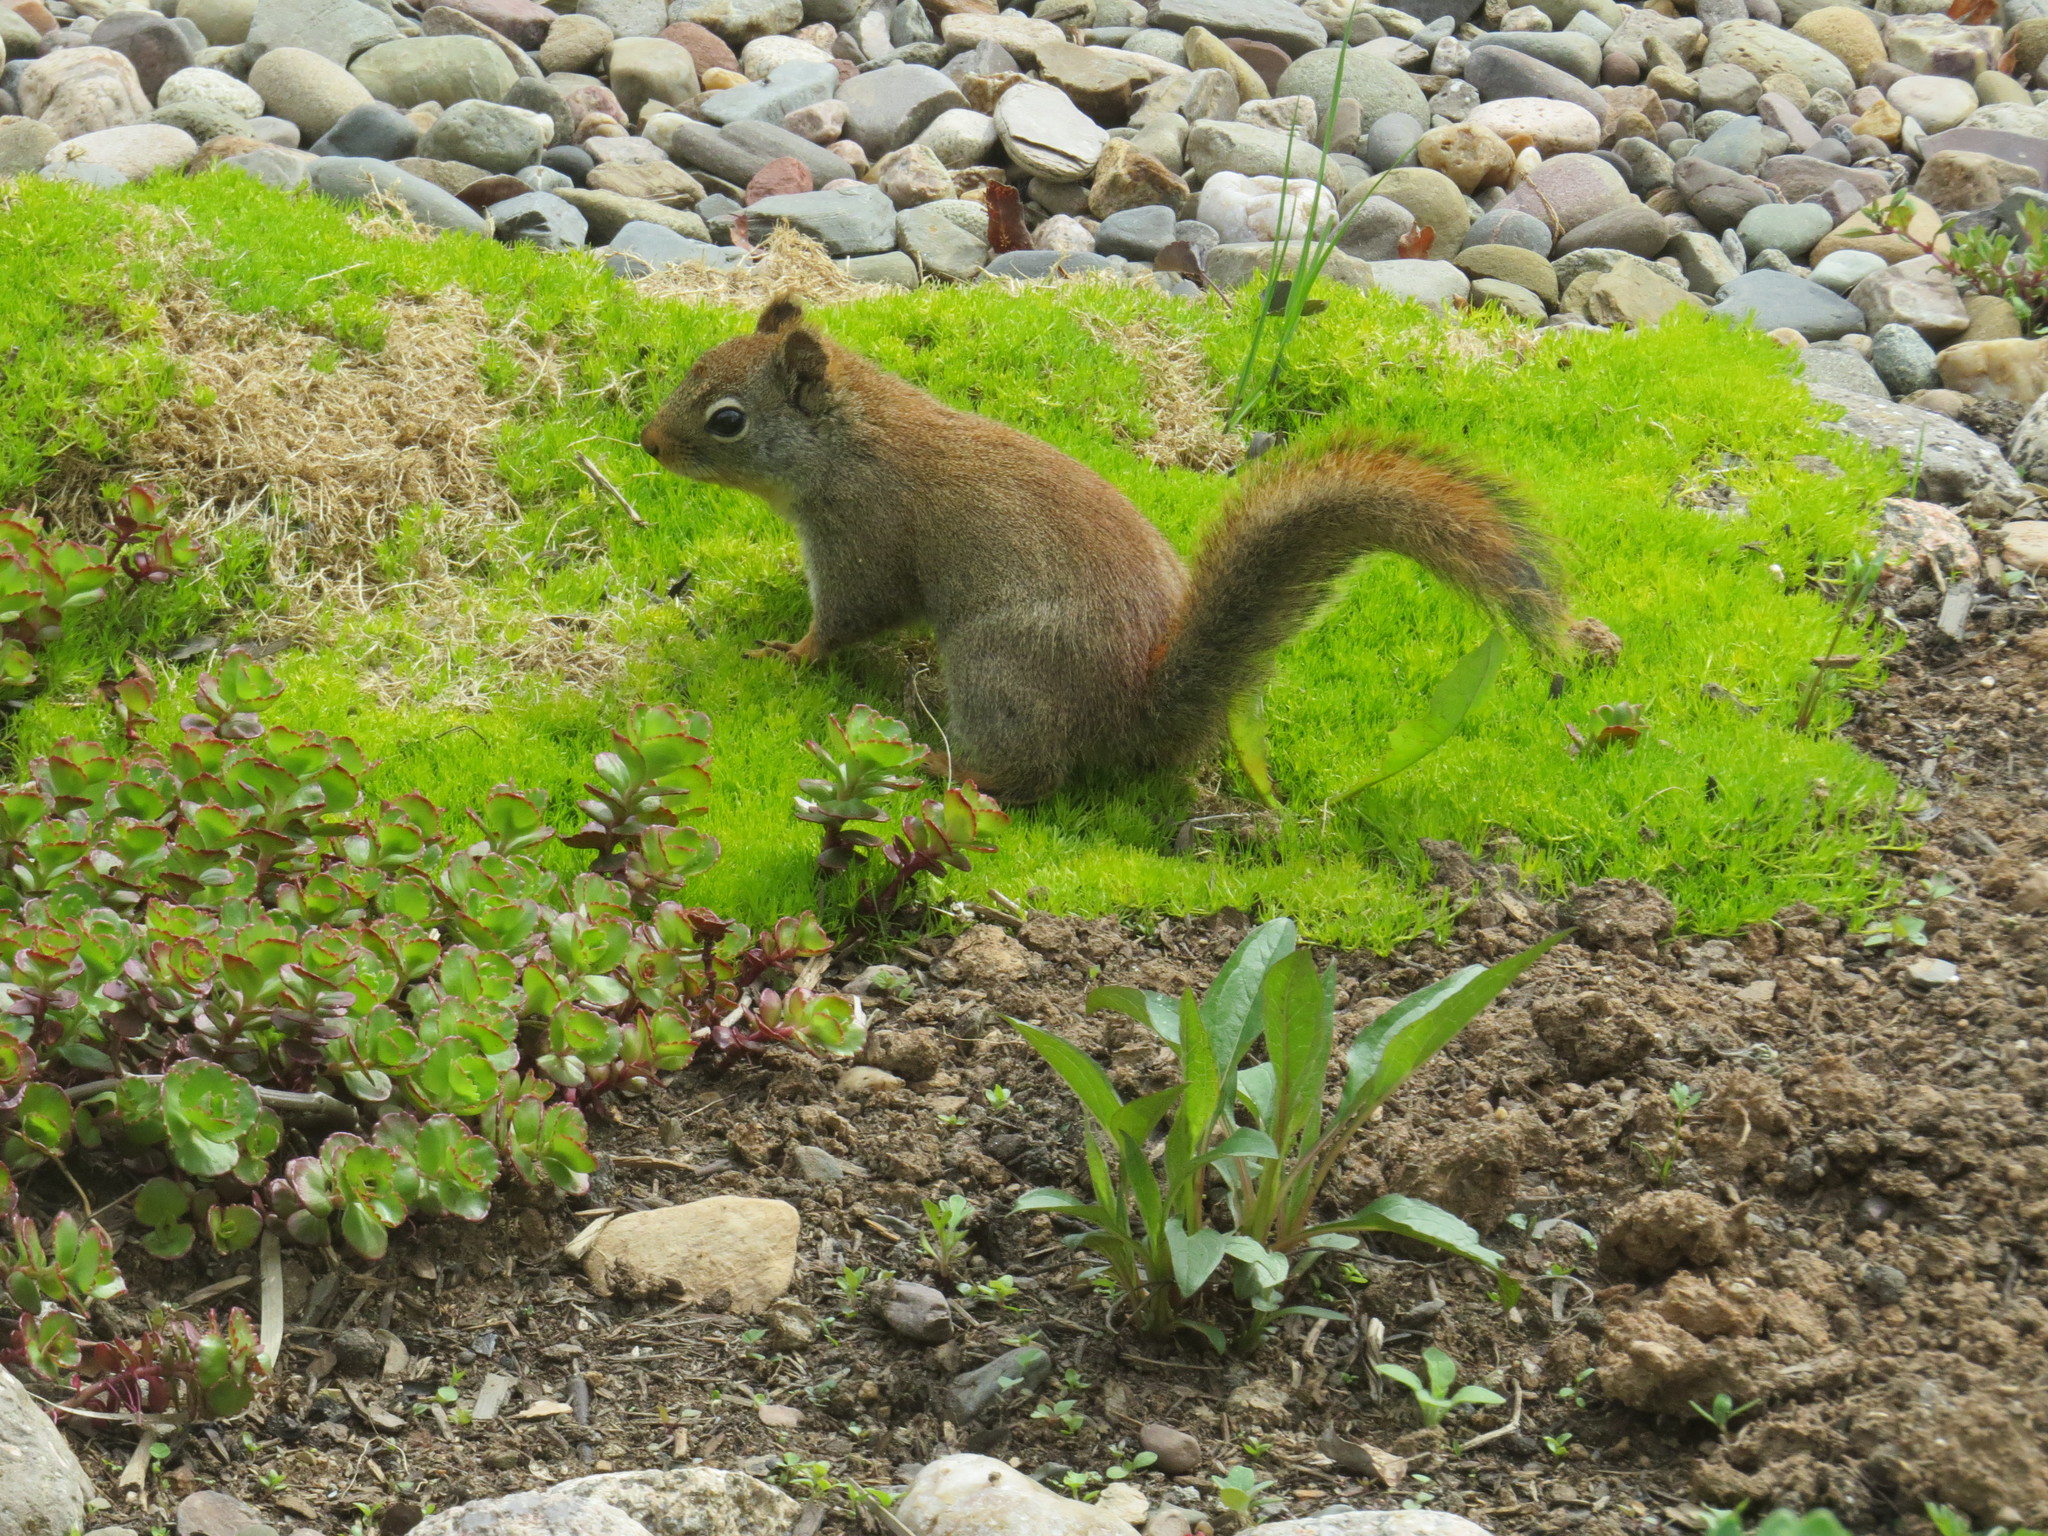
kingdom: Animalia
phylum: Chordata
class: Mammalia
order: Rodentia
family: Sciuridae
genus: Tamiasciurus
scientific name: Tamiasciurus hudsonicus
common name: Red squirrel
